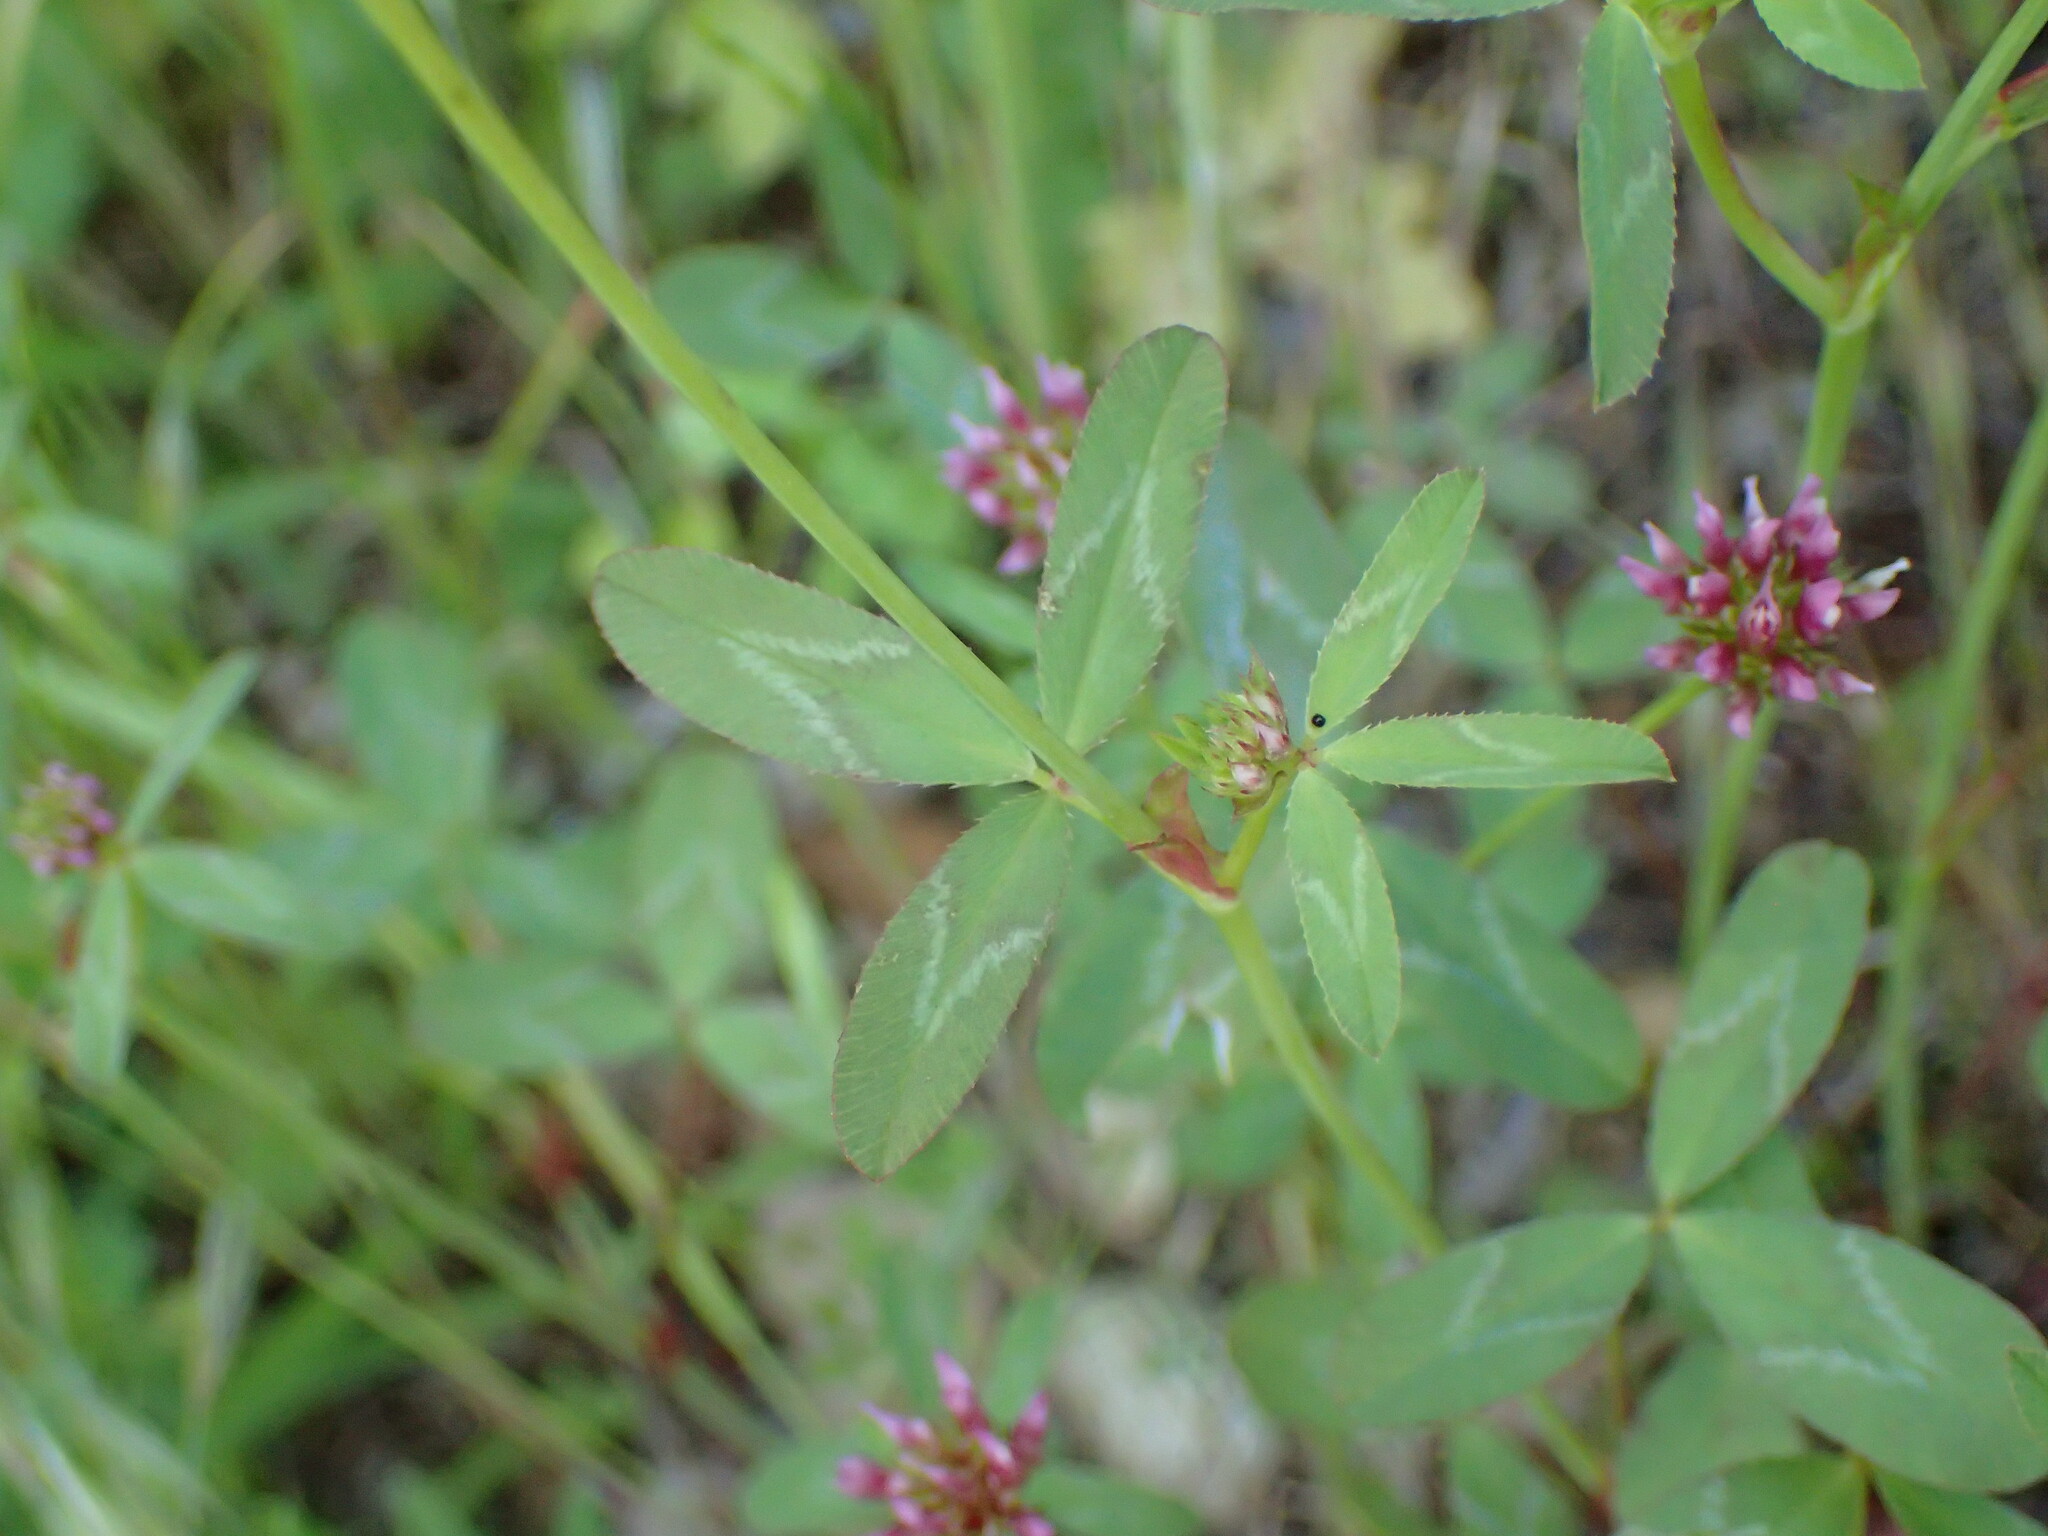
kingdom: Plantae
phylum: Tracheophyta
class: Magnoliopsida
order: Fabales
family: Fabaceae
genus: Trifolium
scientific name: Trifolium ciliolatum
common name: Foothill clover
